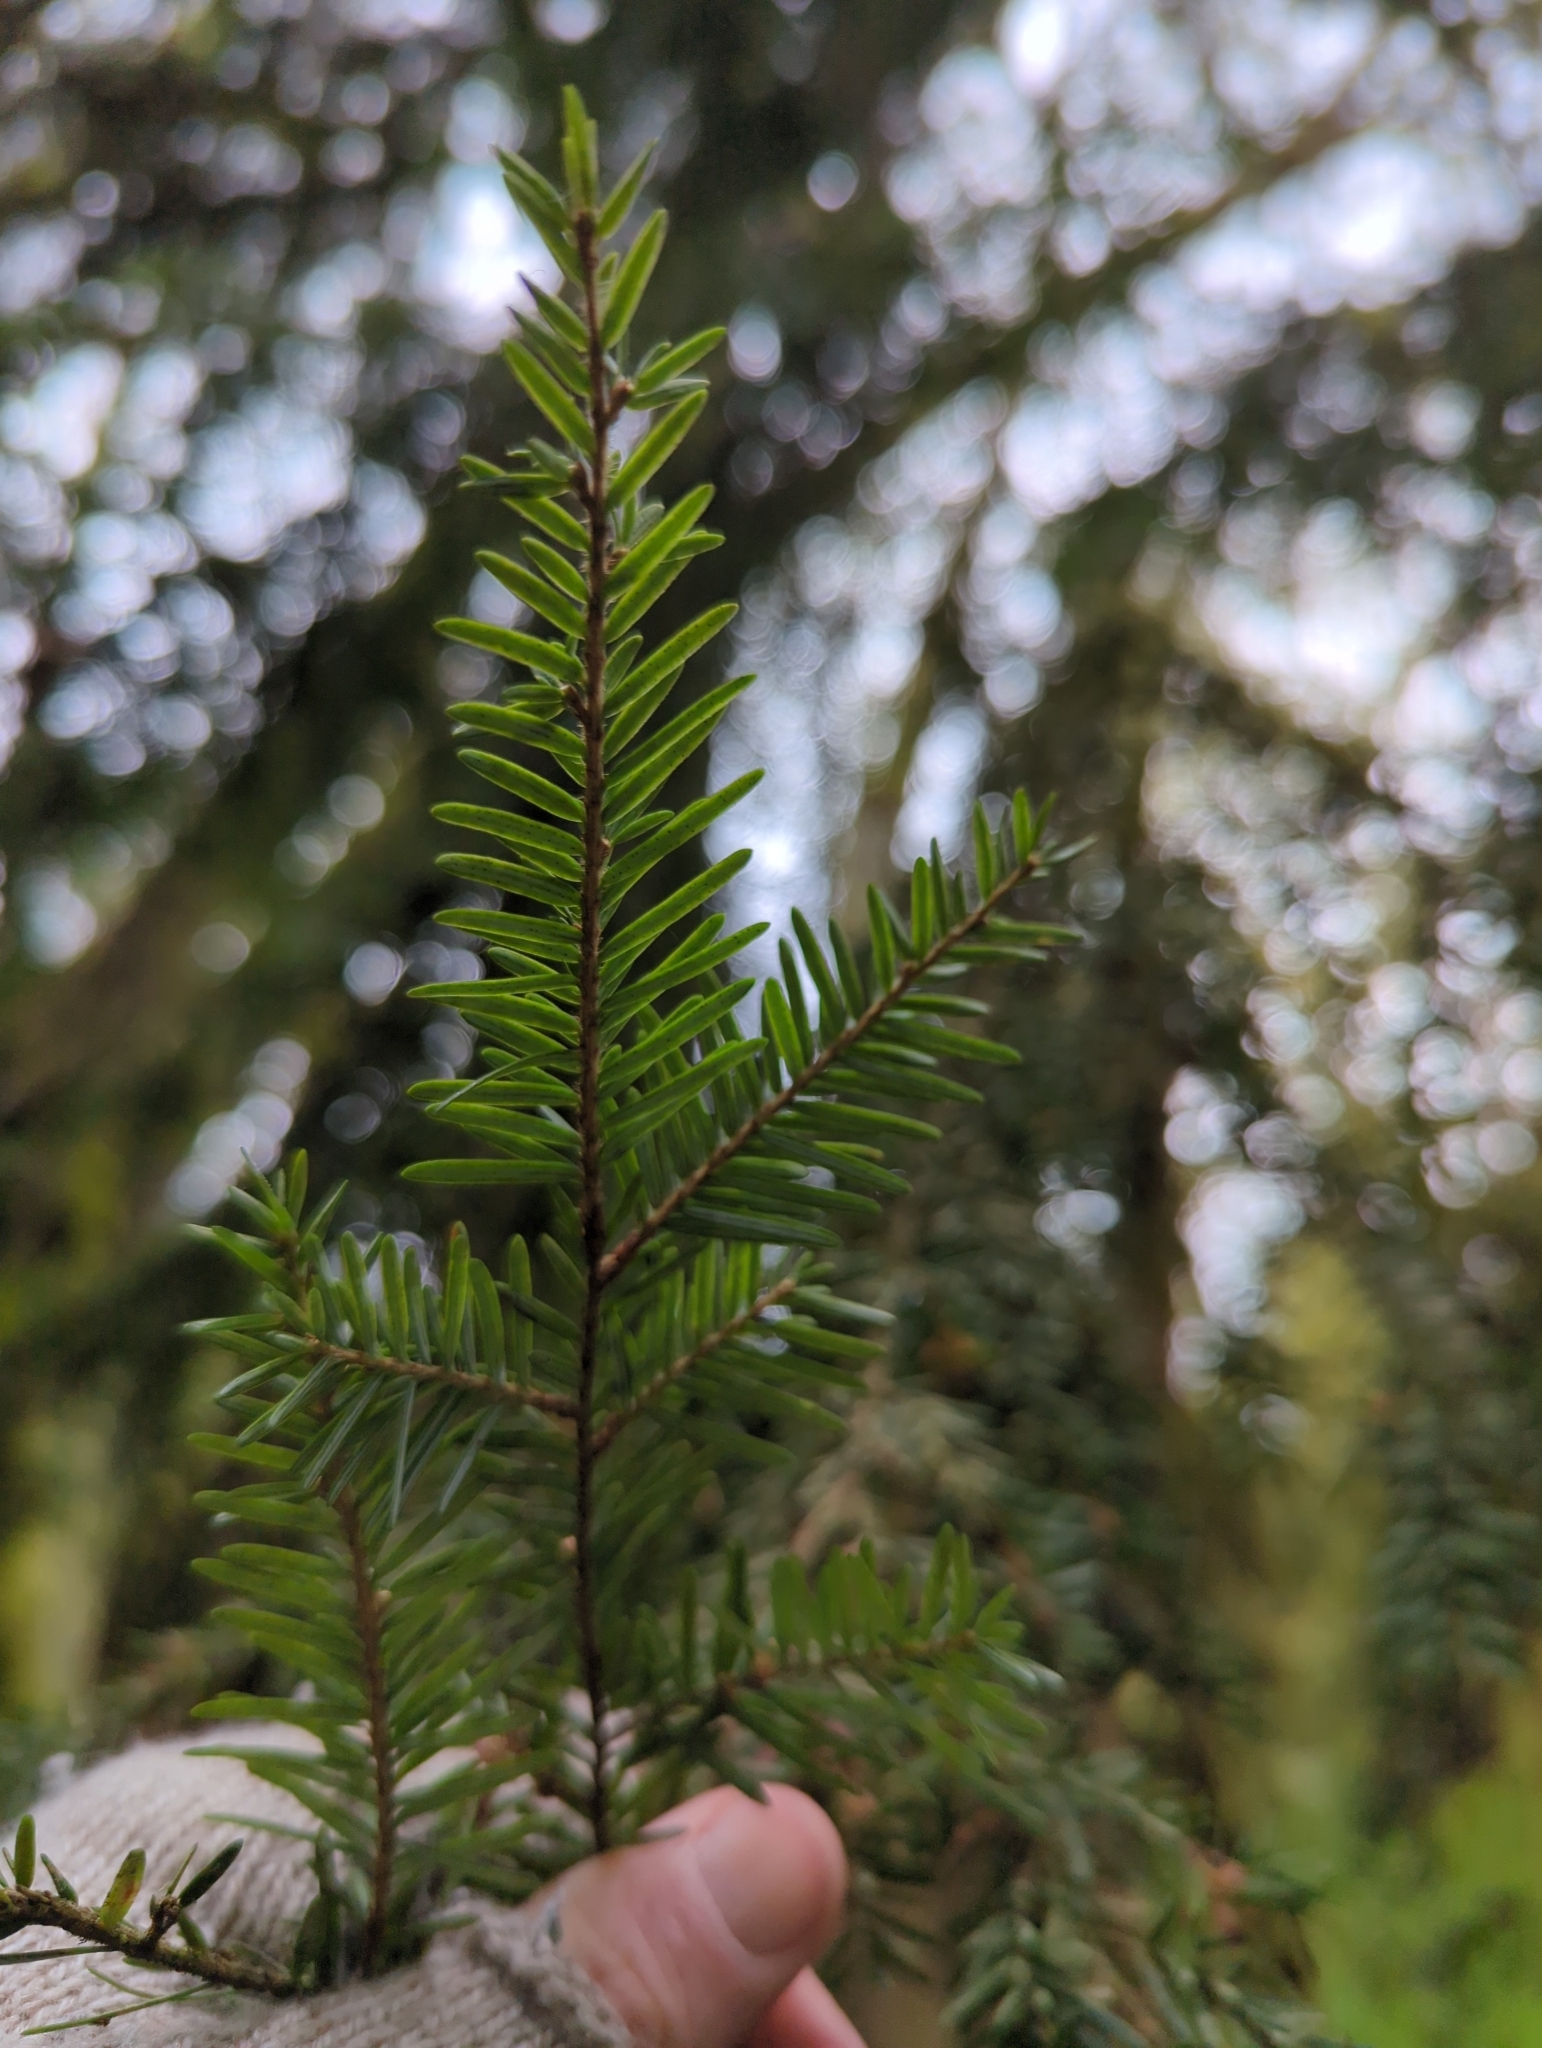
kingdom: Plantae
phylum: Tracheophyta
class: Pinopsida
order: Pinales
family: Pinaceae
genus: Tsuga
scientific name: Tsuga heterophylla
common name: Western hemlock
